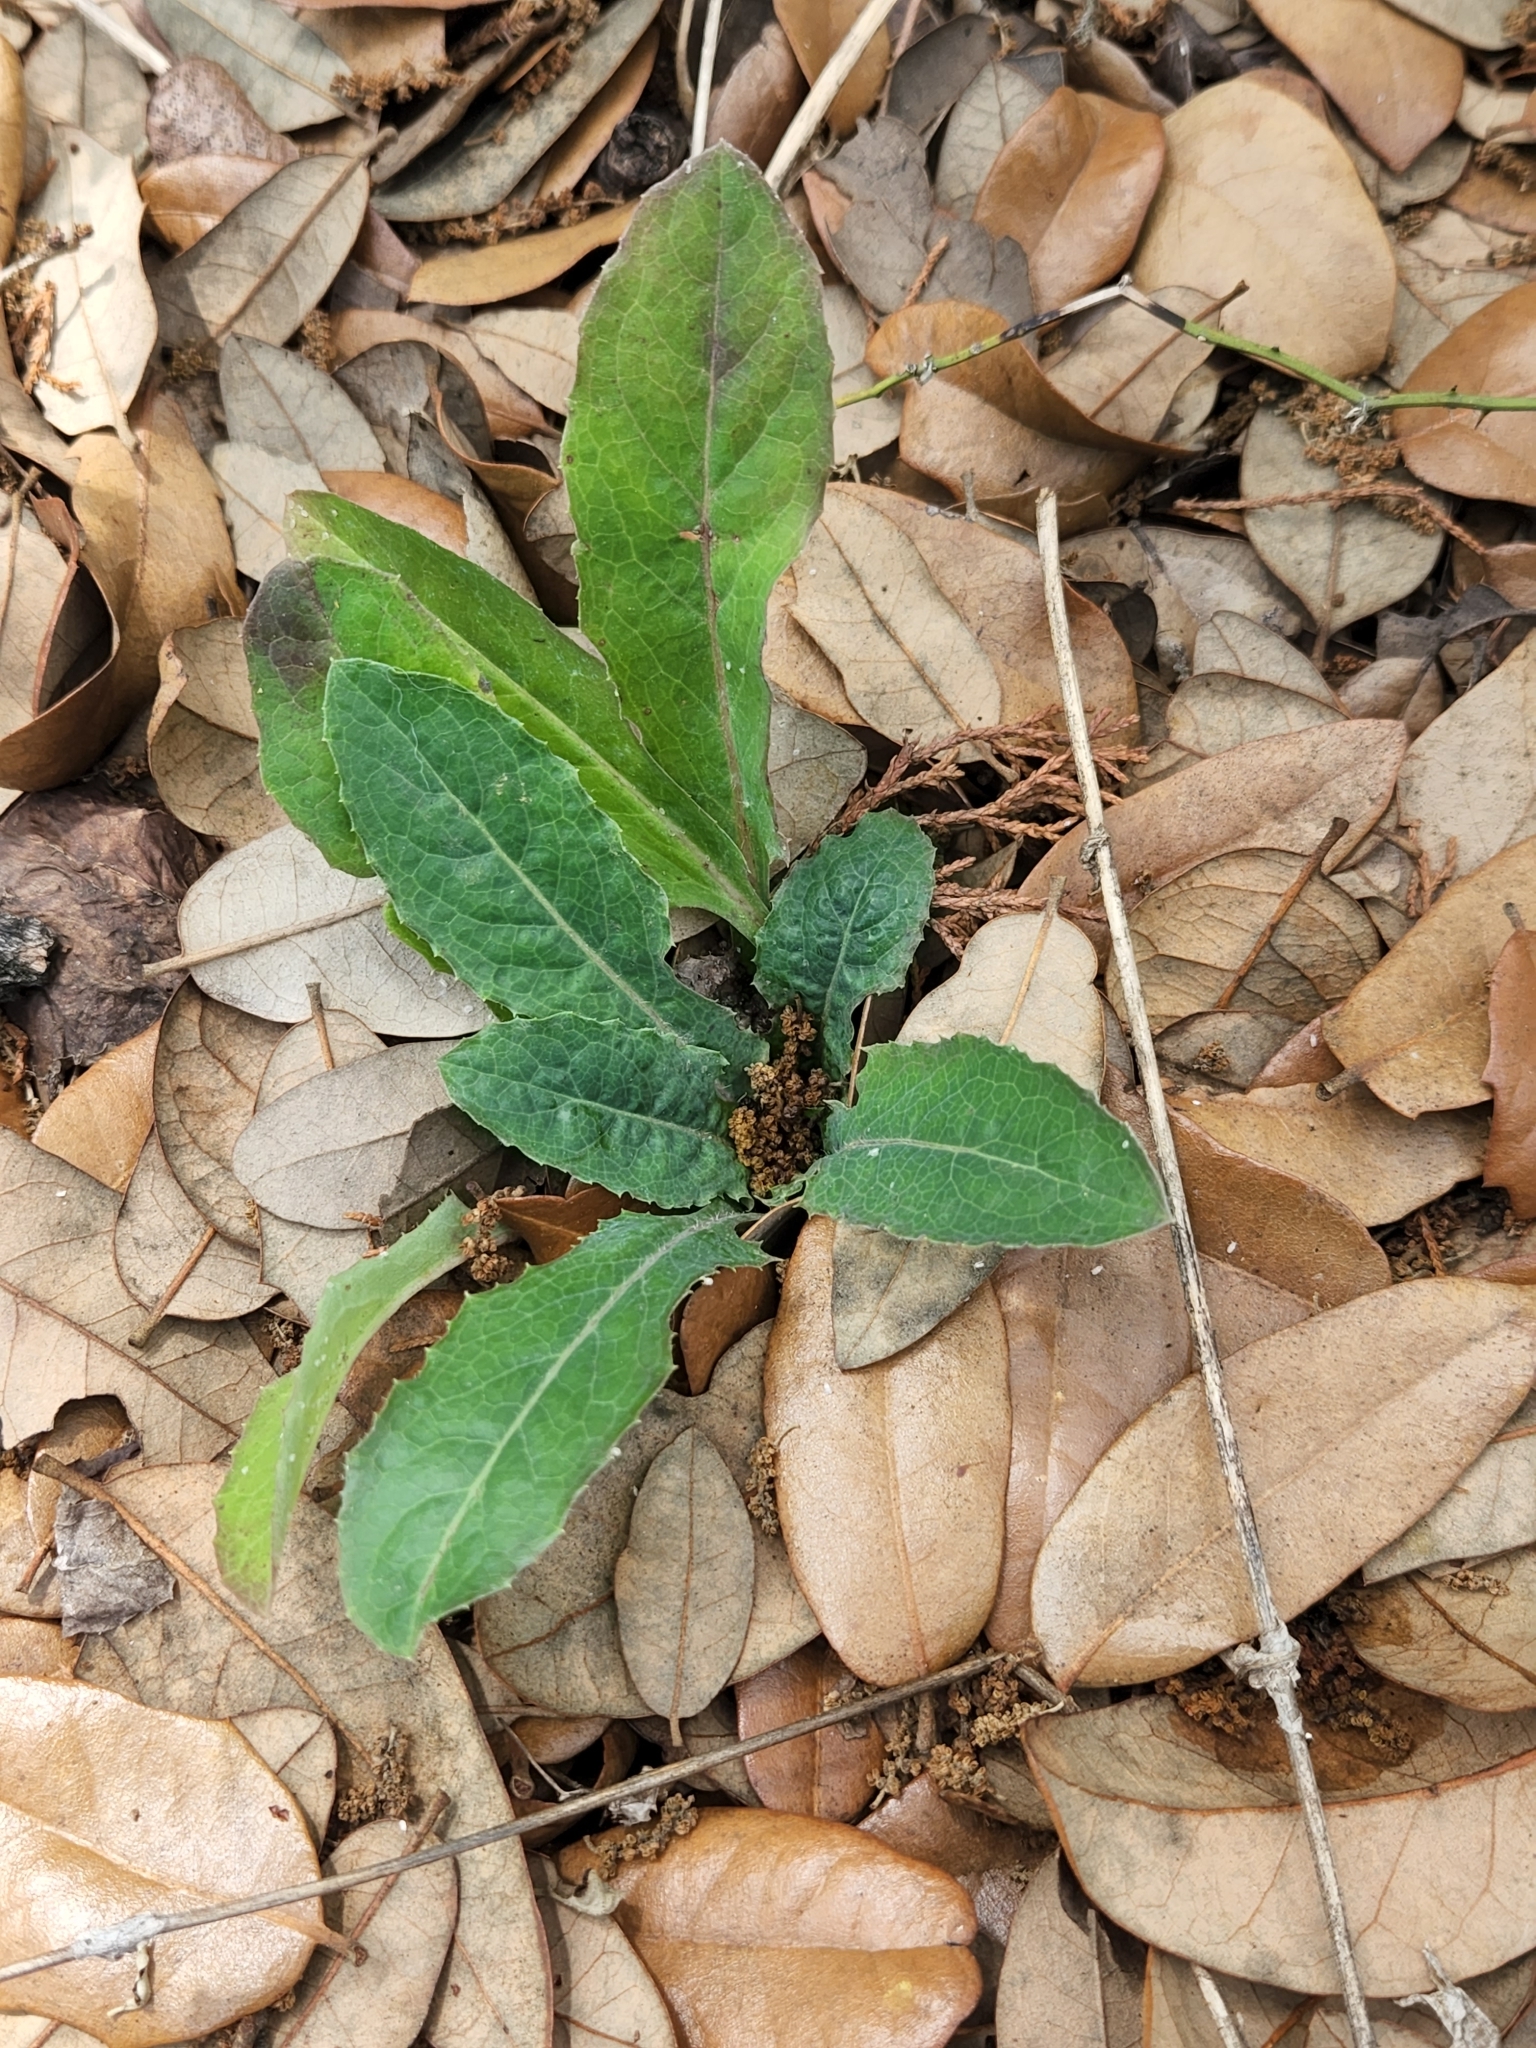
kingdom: Plantae
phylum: Tracheophyta
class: Magnoliopsida
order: Asterales
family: Asteraceae
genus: Chaptalia
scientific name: Chaptalia texana
